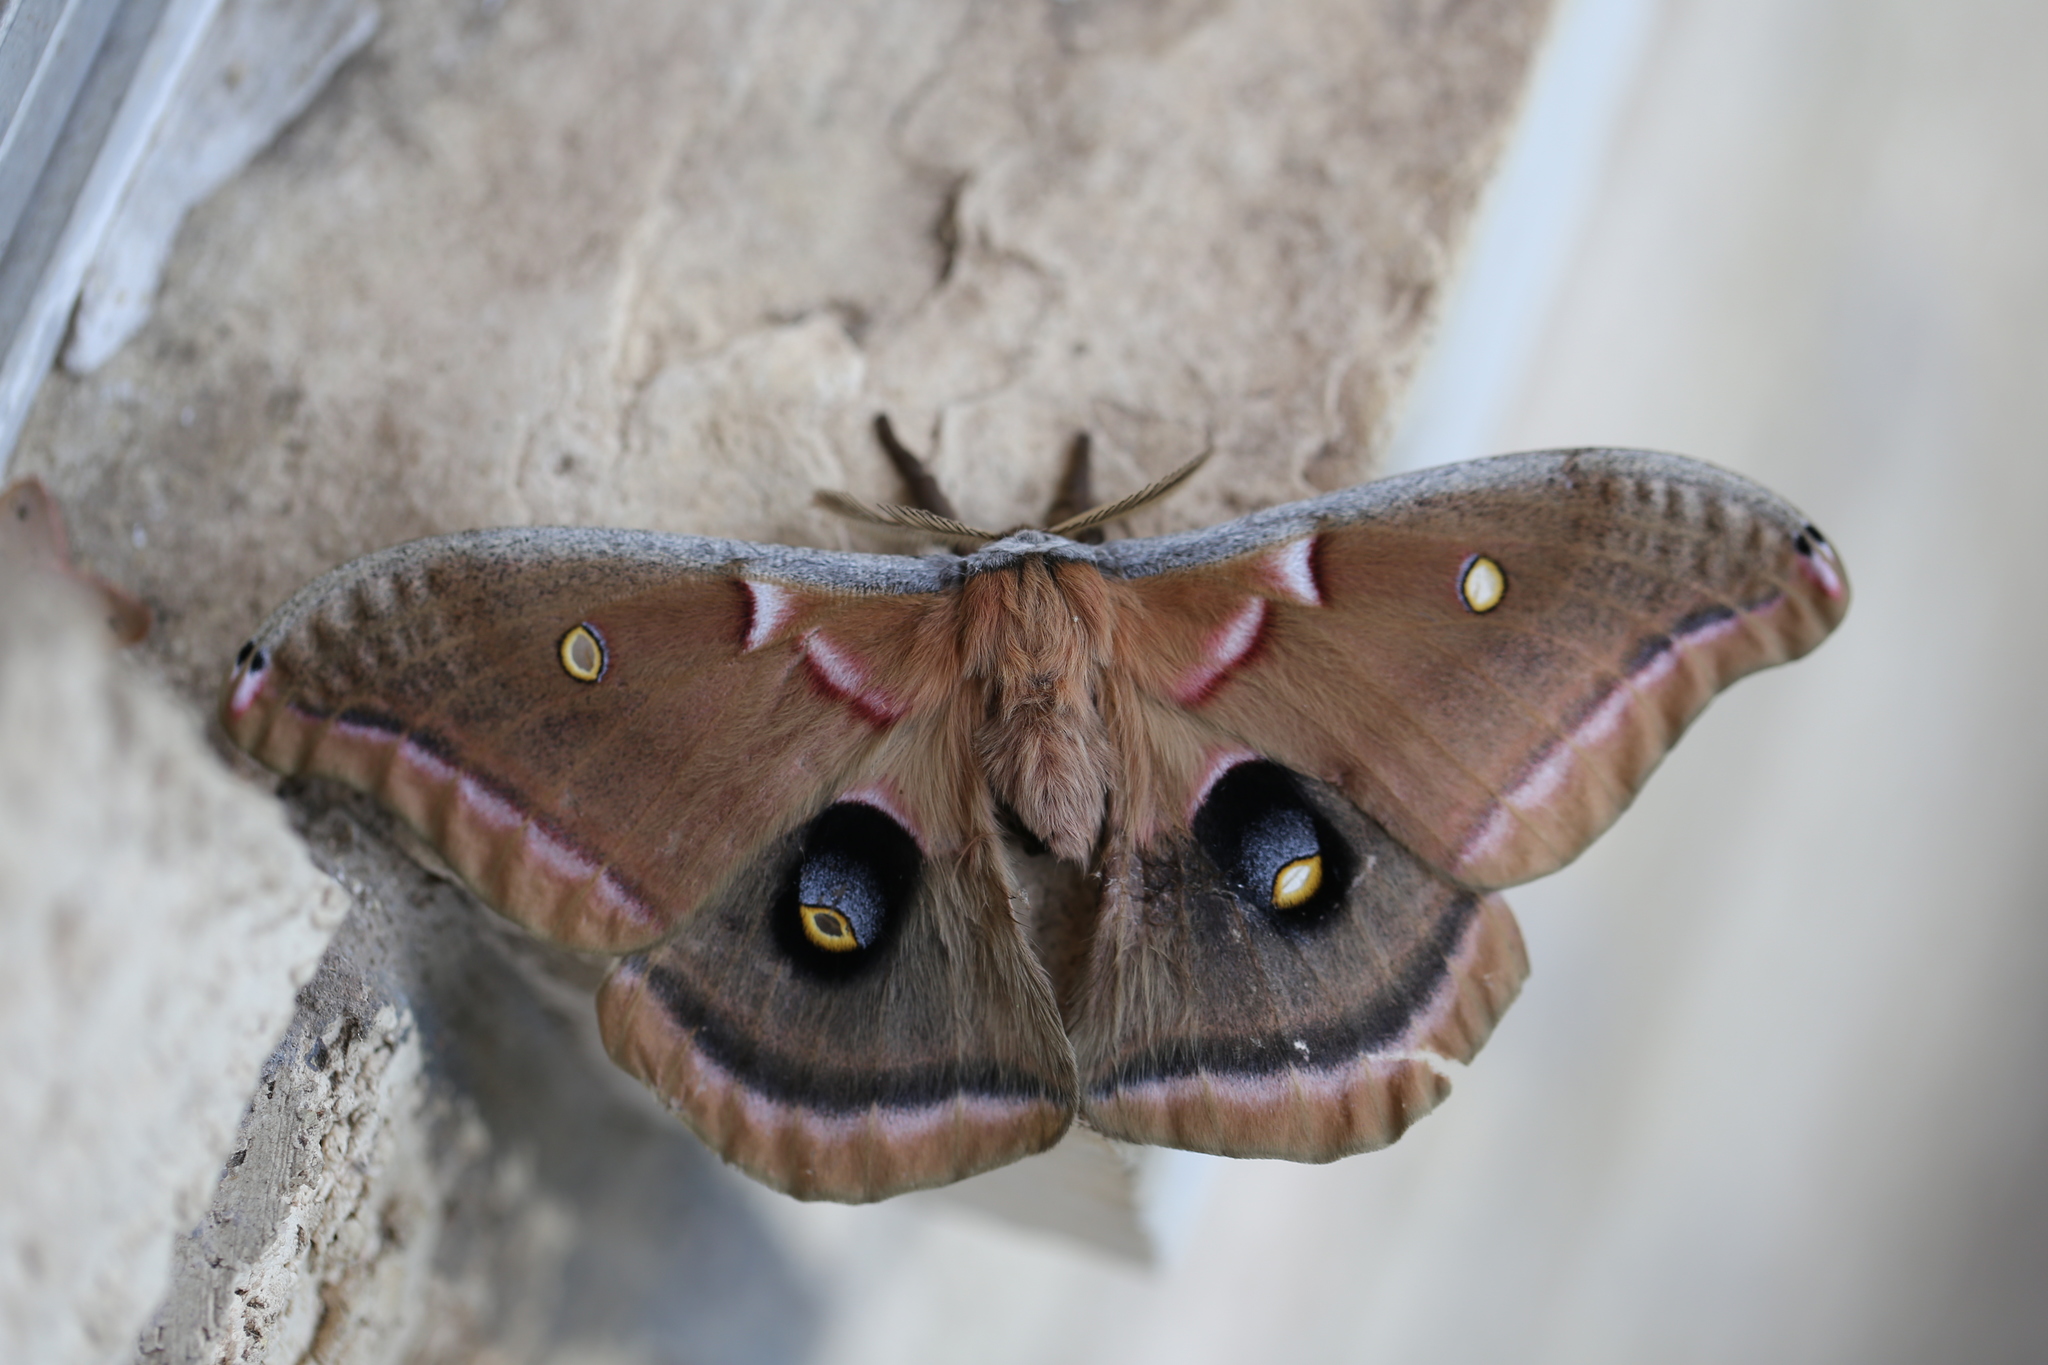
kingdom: Animalia
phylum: Arthropoda
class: Insecta
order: Lepidoptera
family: Saturniidae
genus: Antheraea
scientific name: Antheraea polyphemus
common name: Polyphemus moth
